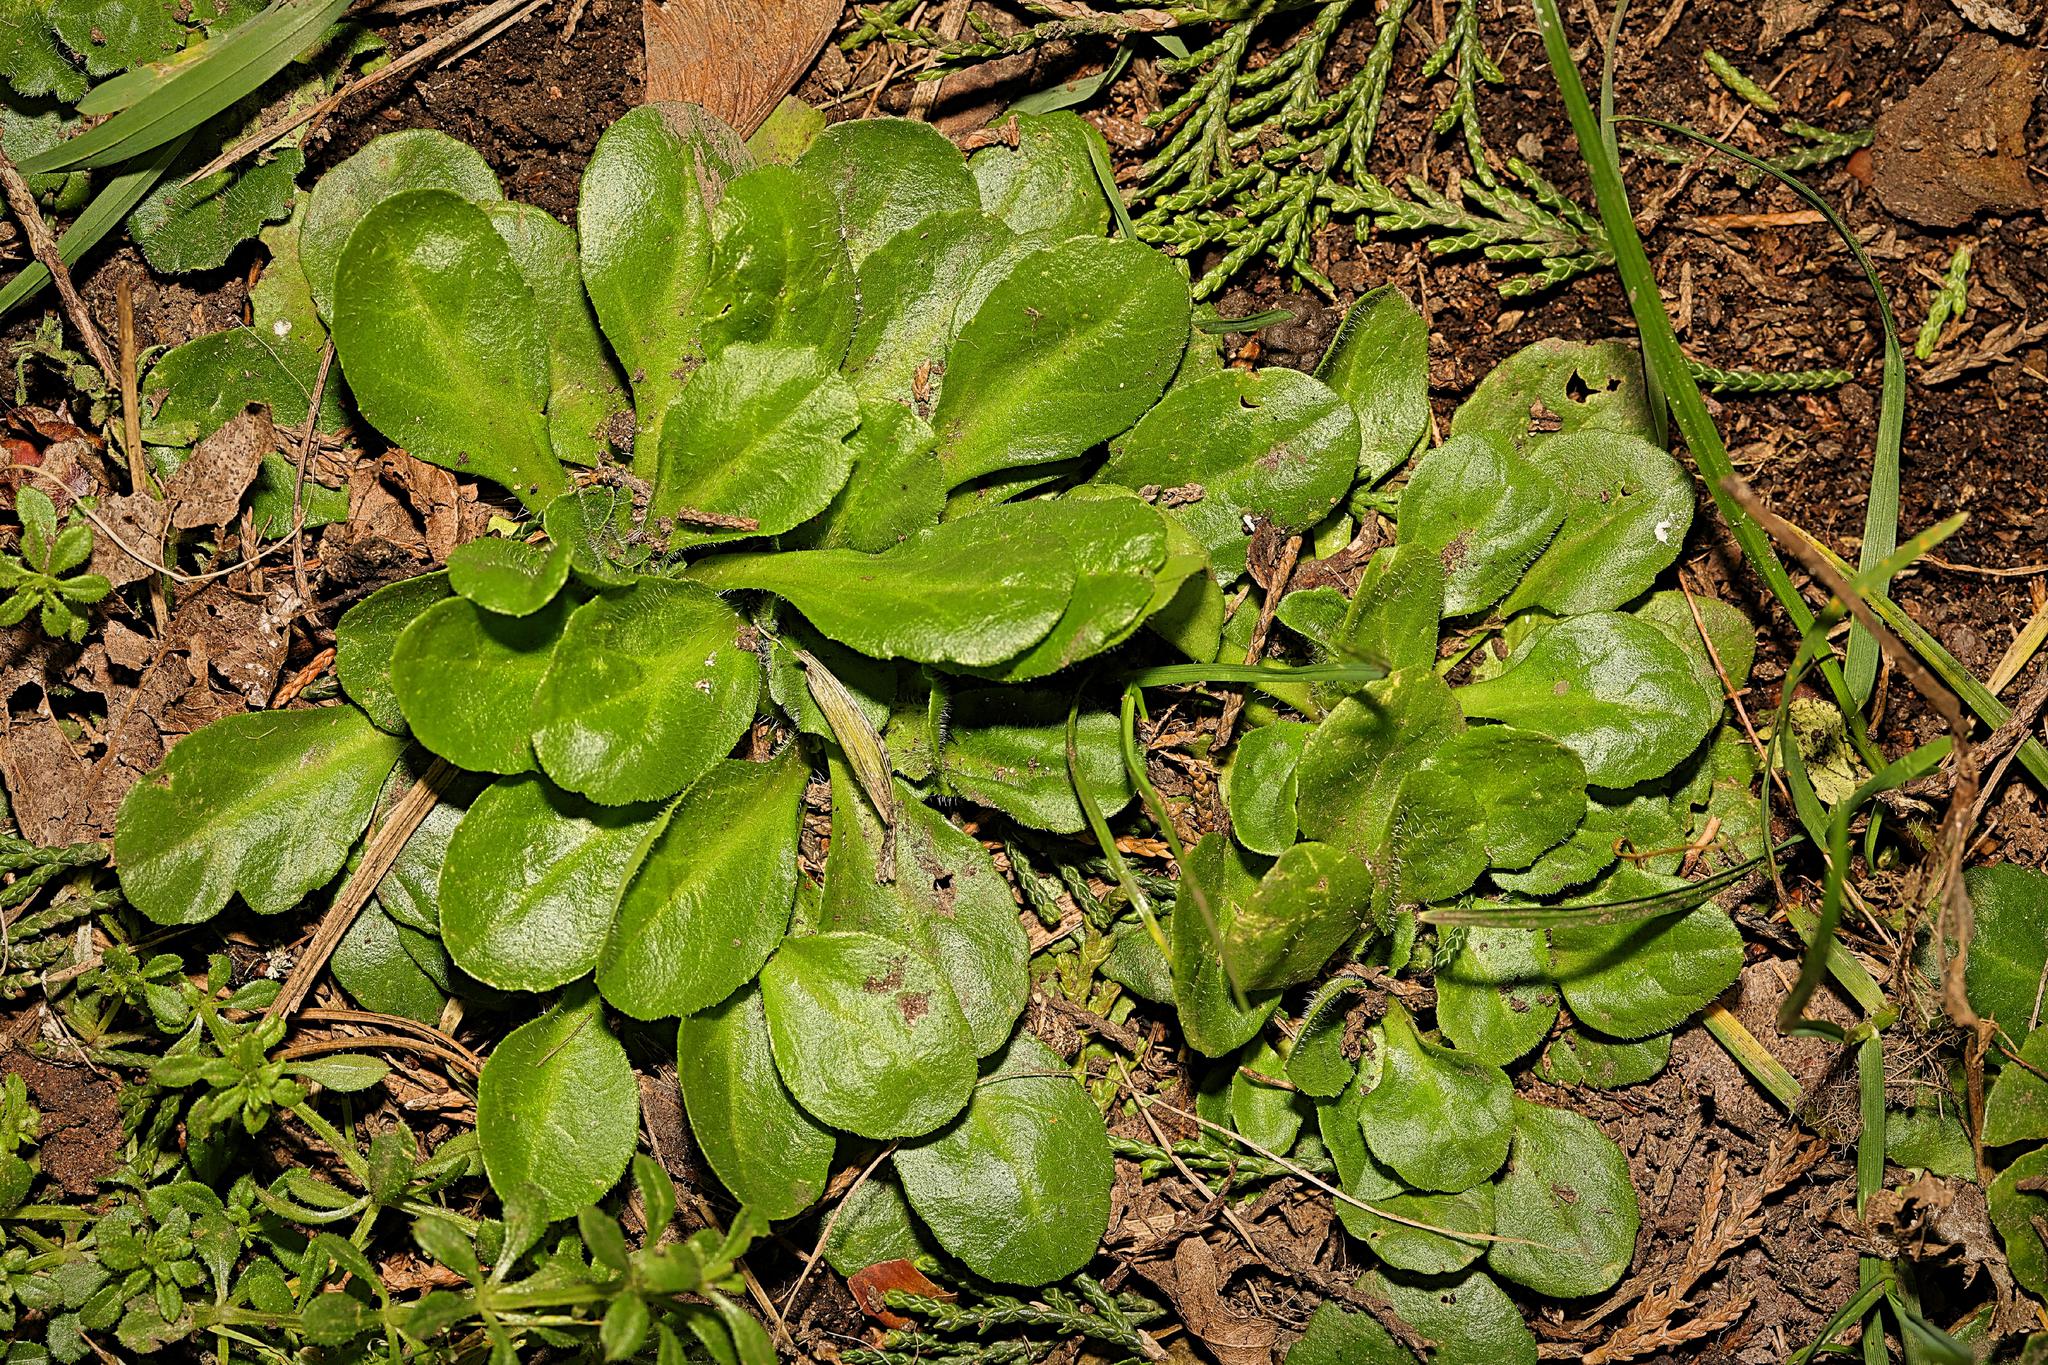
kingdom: Plantae
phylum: Tracheophyta
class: Magnoliopsida
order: Asterales
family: Asteraceae
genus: Bellis
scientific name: Bellis perennis
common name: Lawndaisy
